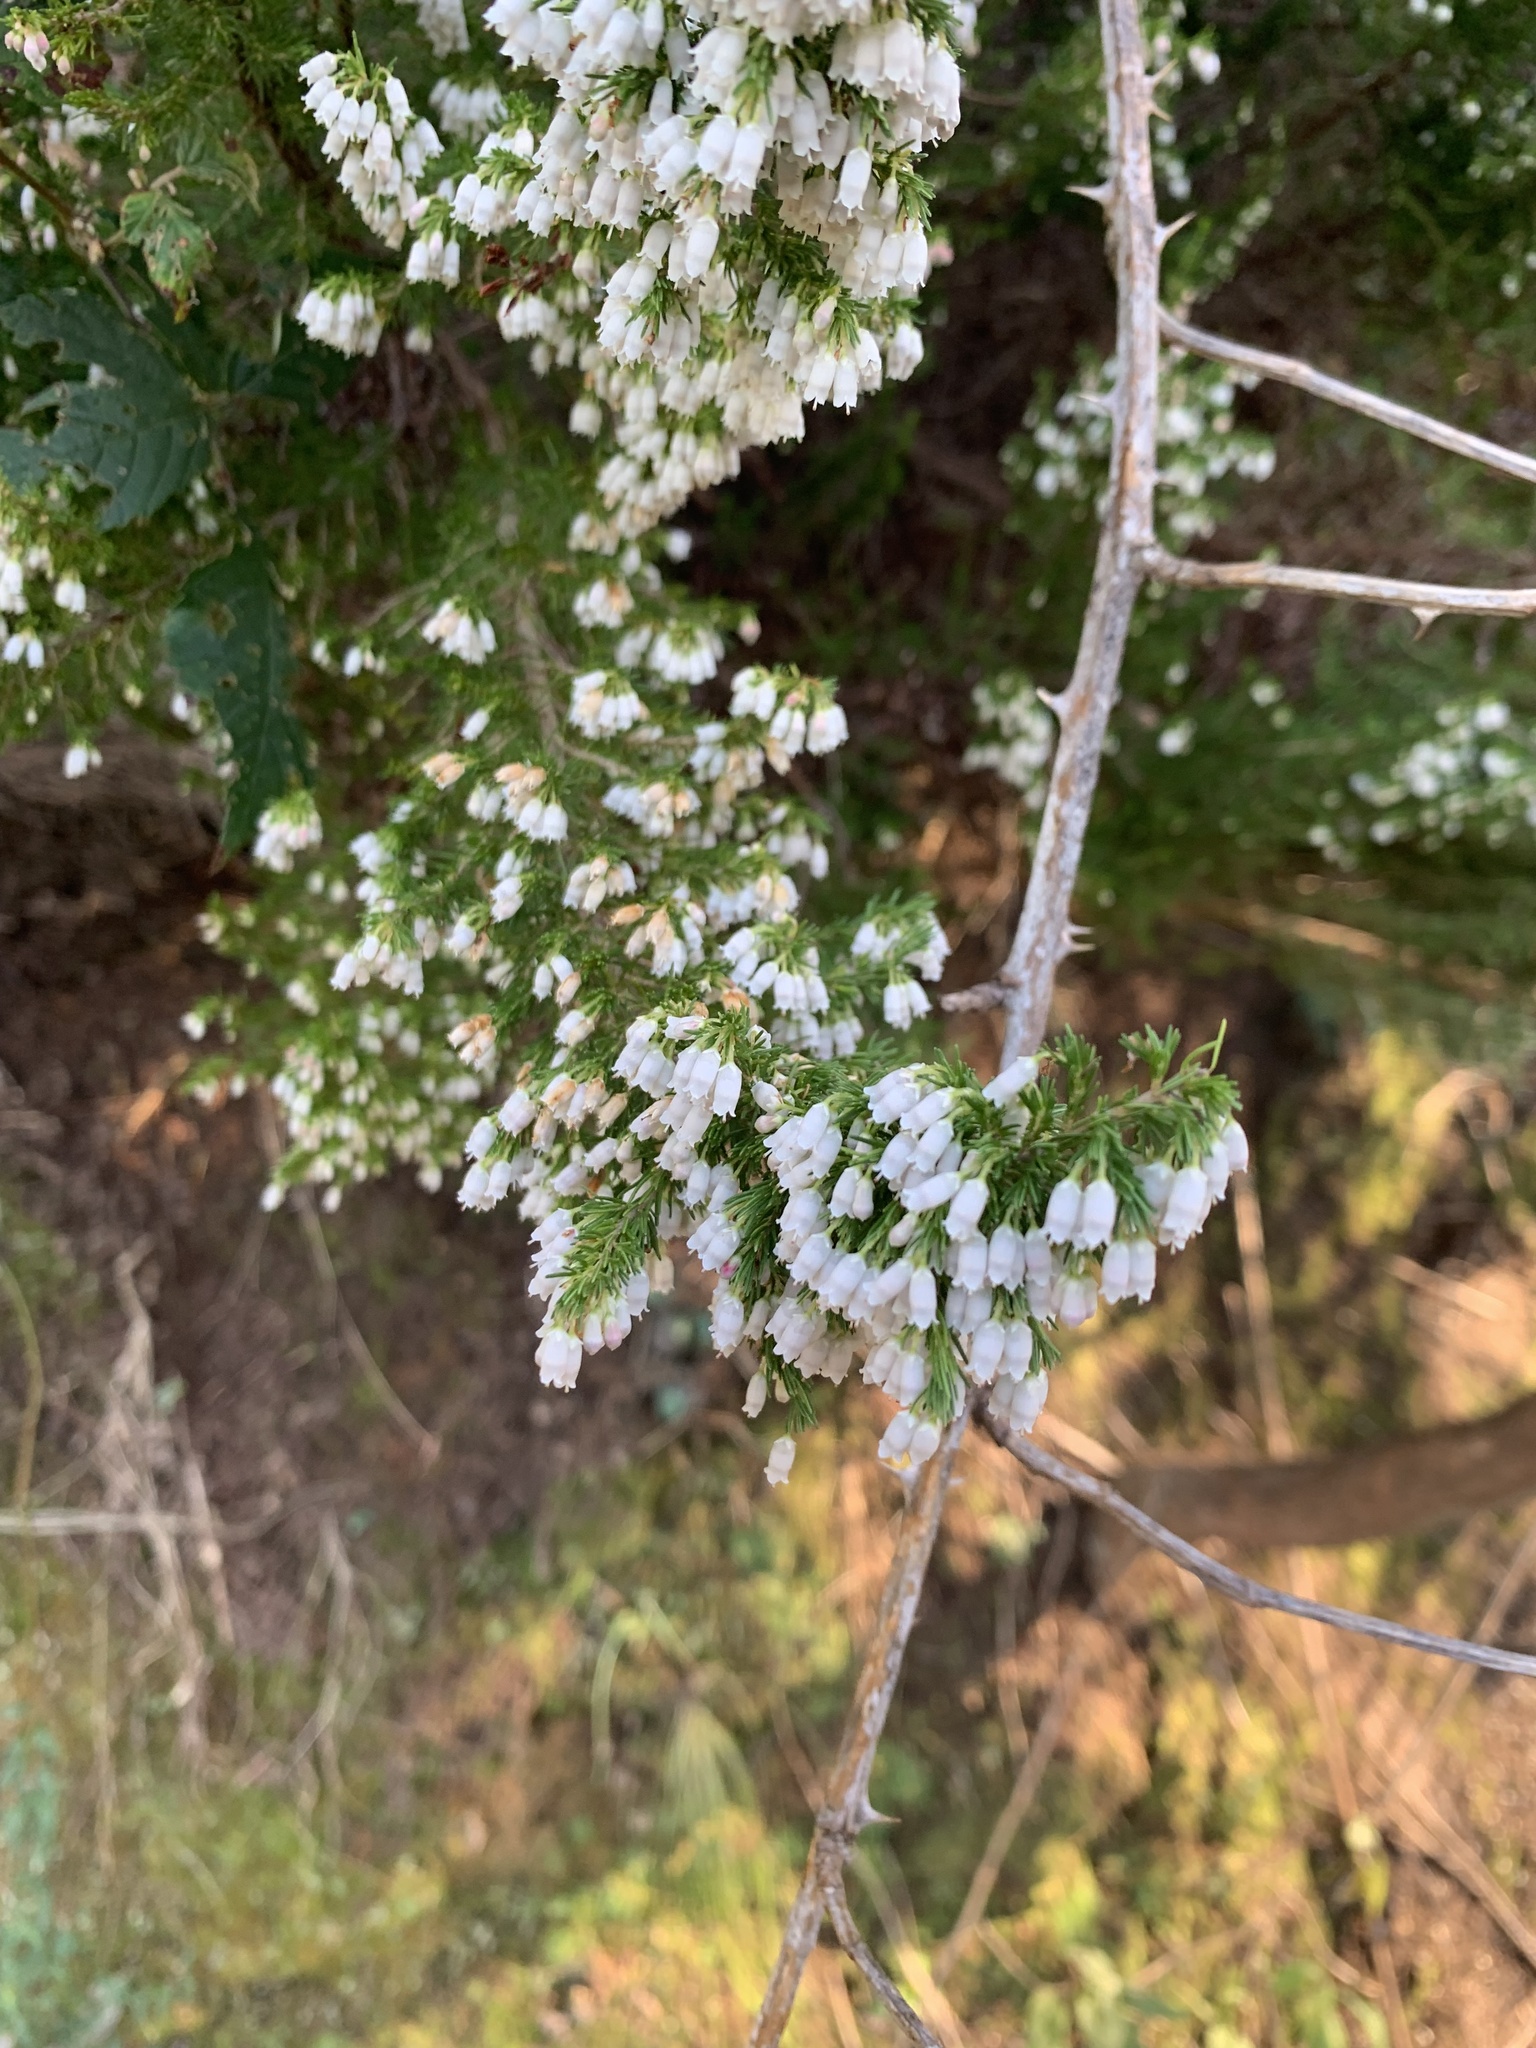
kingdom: Plantae
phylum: Tracheophyta
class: Magnoliopsida
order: Ericales
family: Ericaceae
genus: Erica
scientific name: Erica lusitanica
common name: Spanish heath
